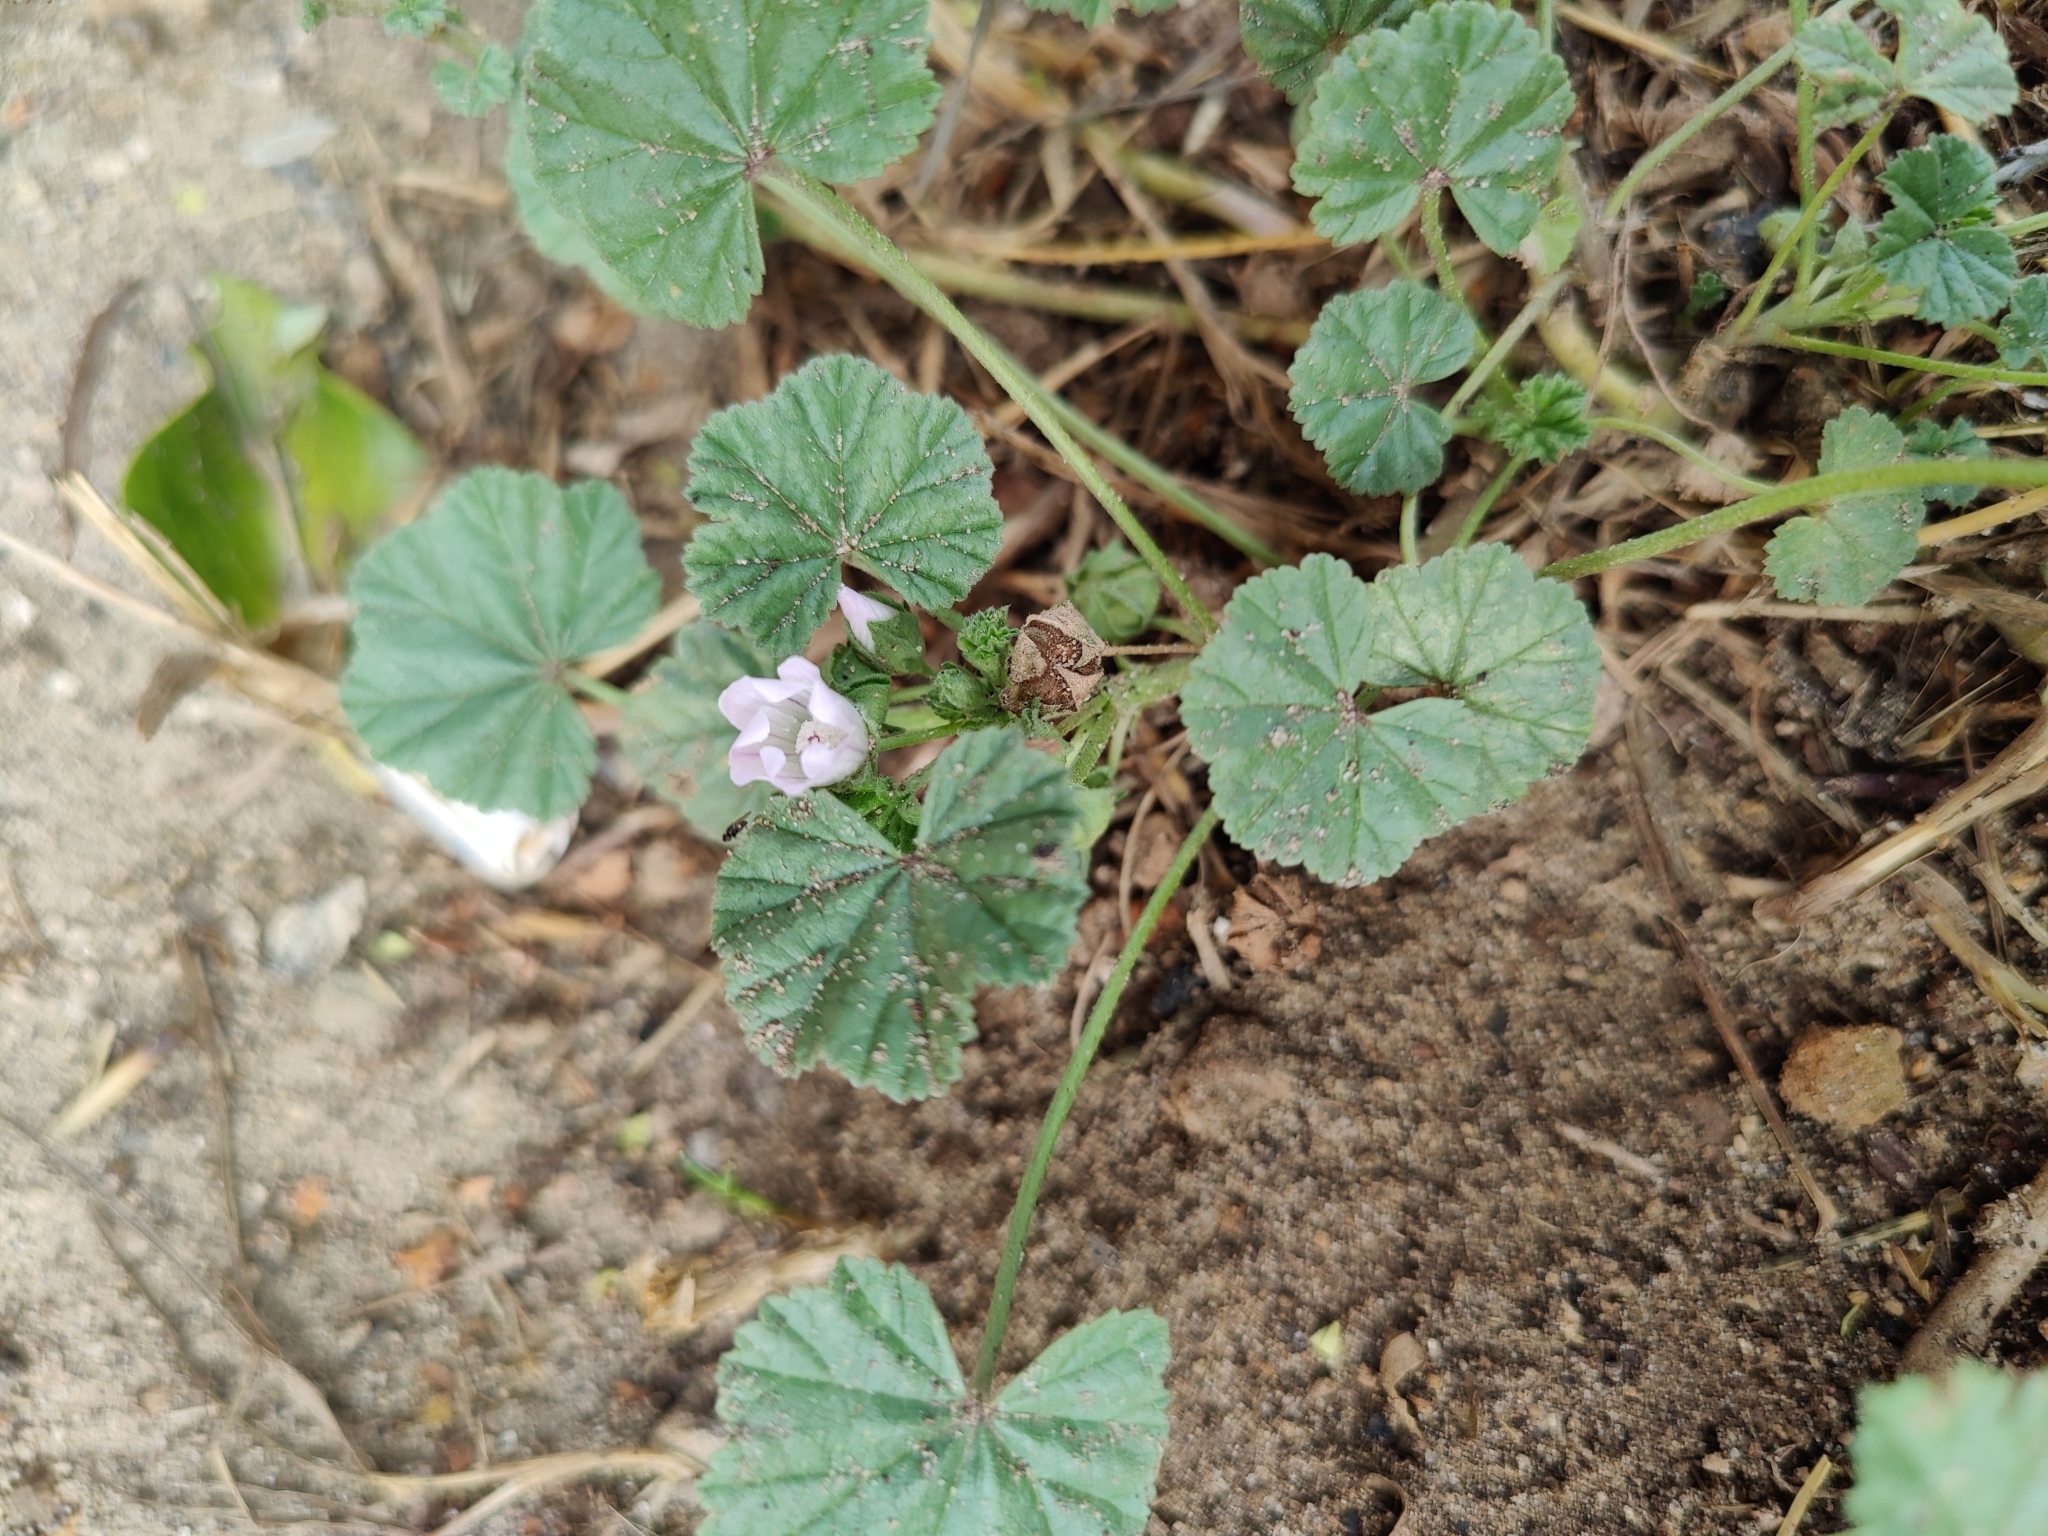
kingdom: Plantae
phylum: Tracheophyta
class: Magnoliopsida
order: Malvales
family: Malvaceae
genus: Malva
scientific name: Malva neglecta
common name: Common mallow
